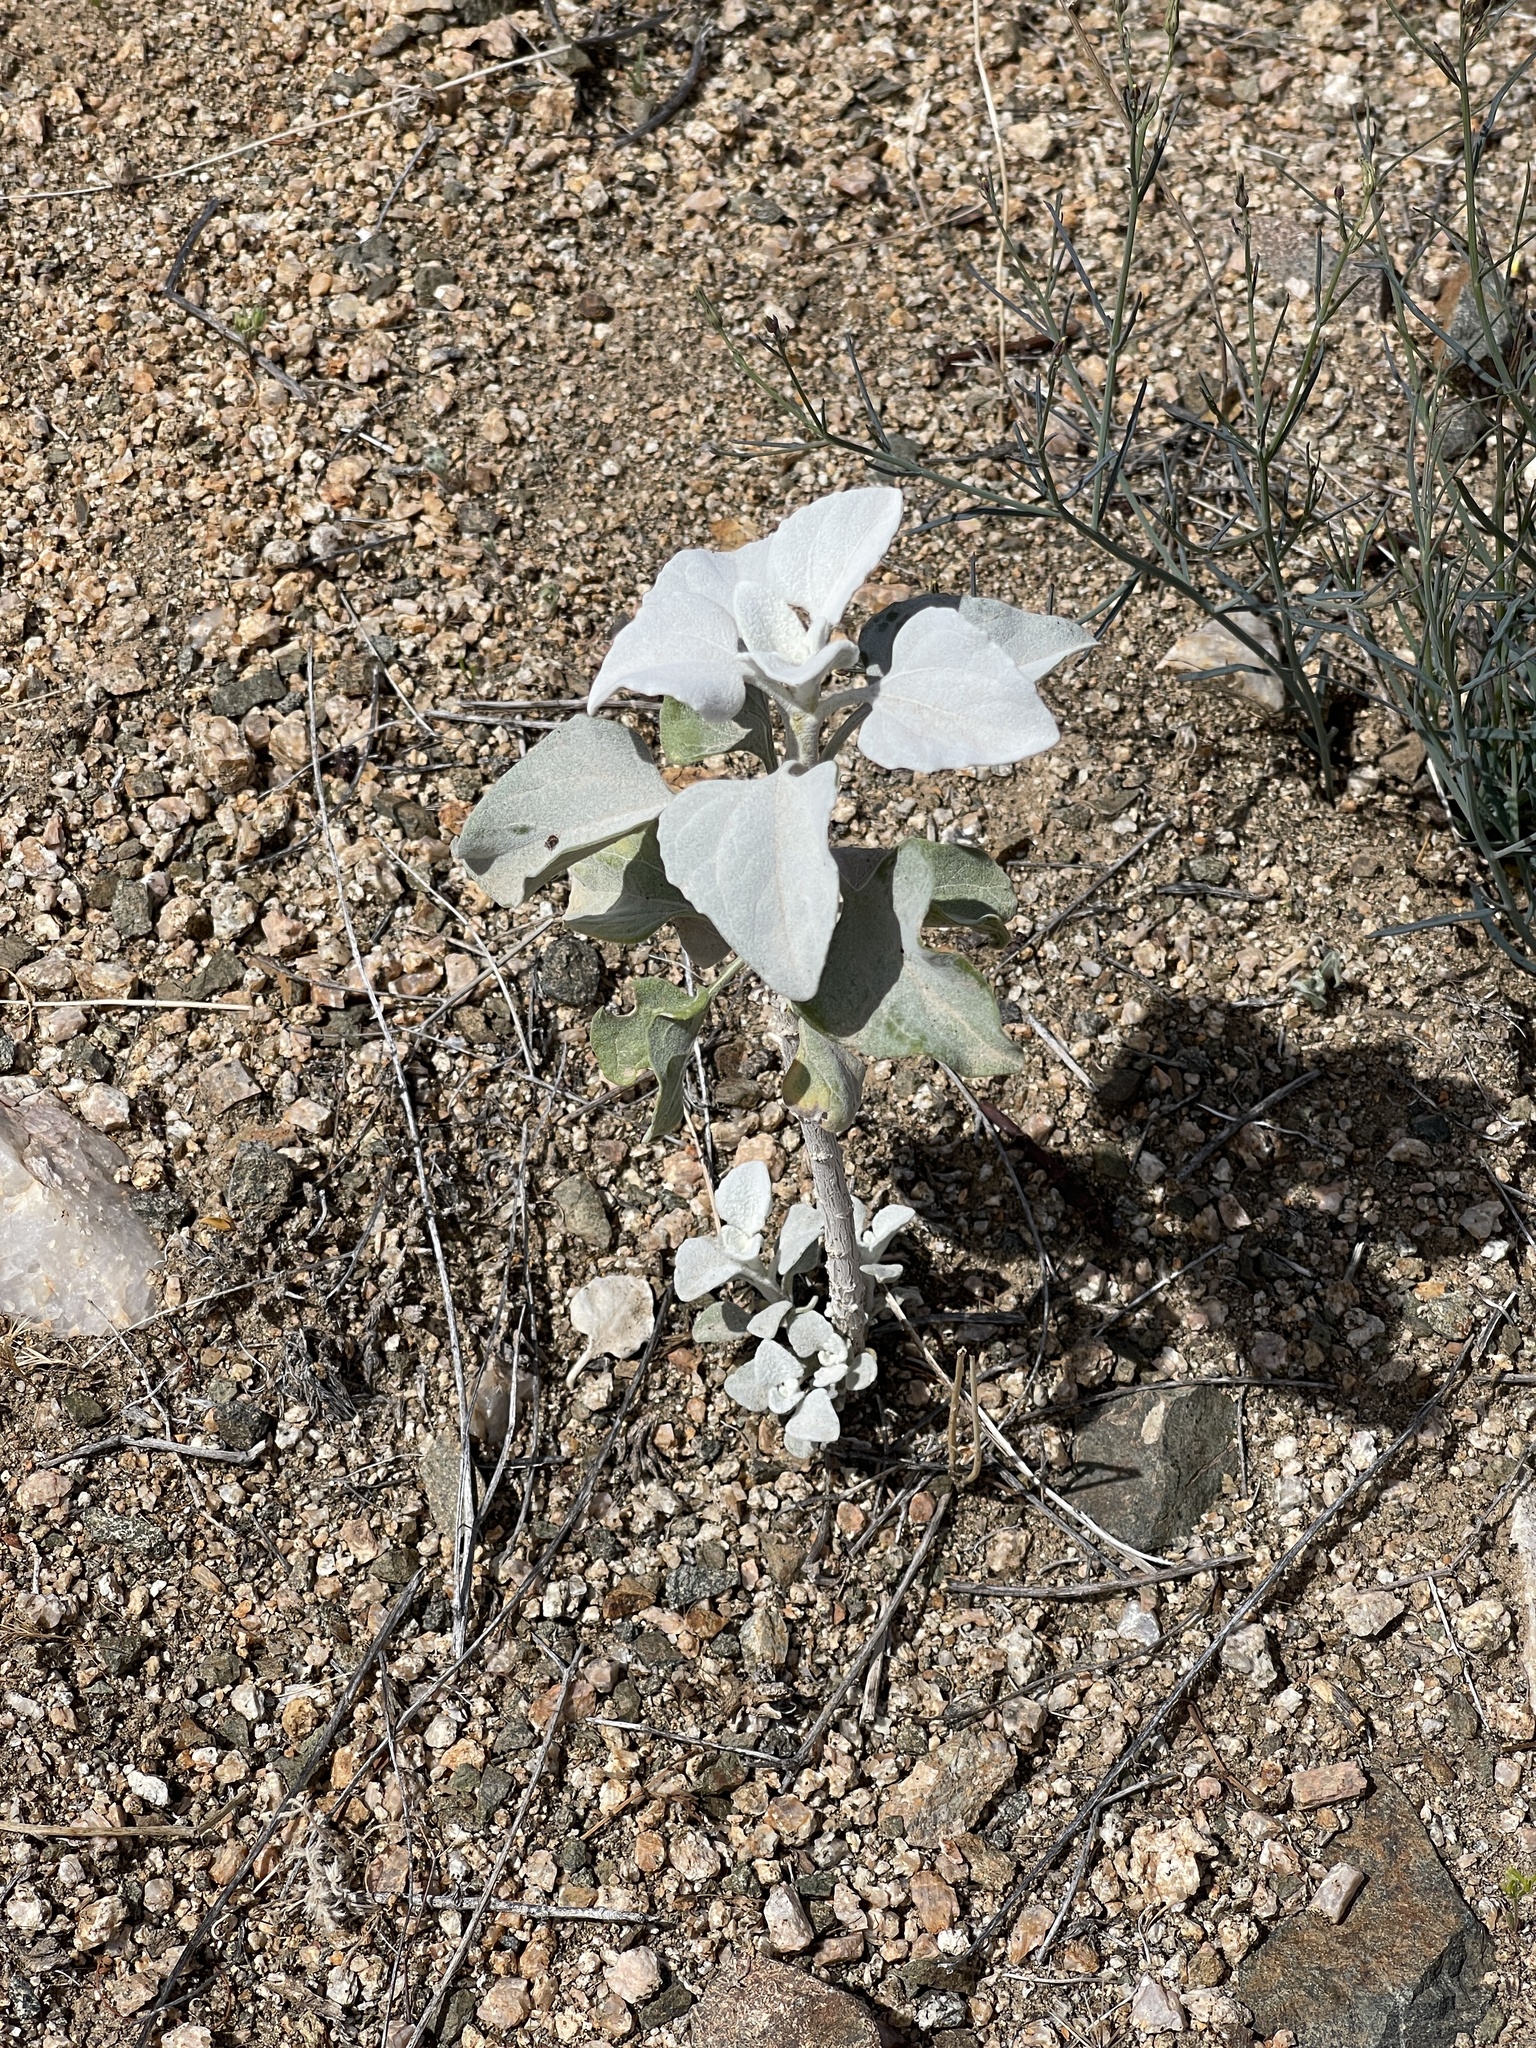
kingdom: Plantae
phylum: Tracheophyta
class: Magnoliopsida
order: Asterales
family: Asteraceae
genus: Encelia
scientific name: Encelia farinosa
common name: Brittlebush
